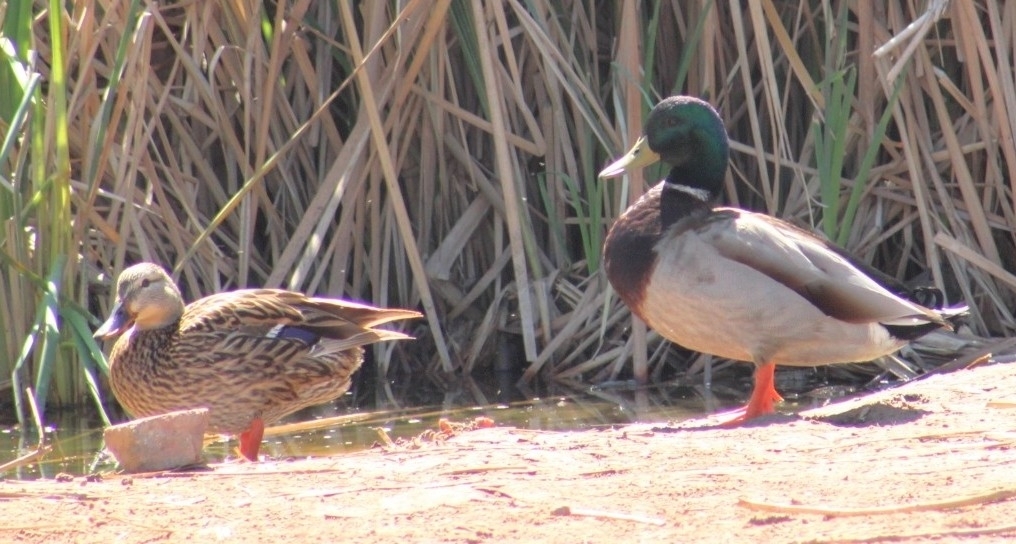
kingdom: Animalia
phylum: Chordata
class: Aves
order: Anseriformes
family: Anatidae
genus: Anas
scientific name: Anas platyrhynchos
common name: Mallard
